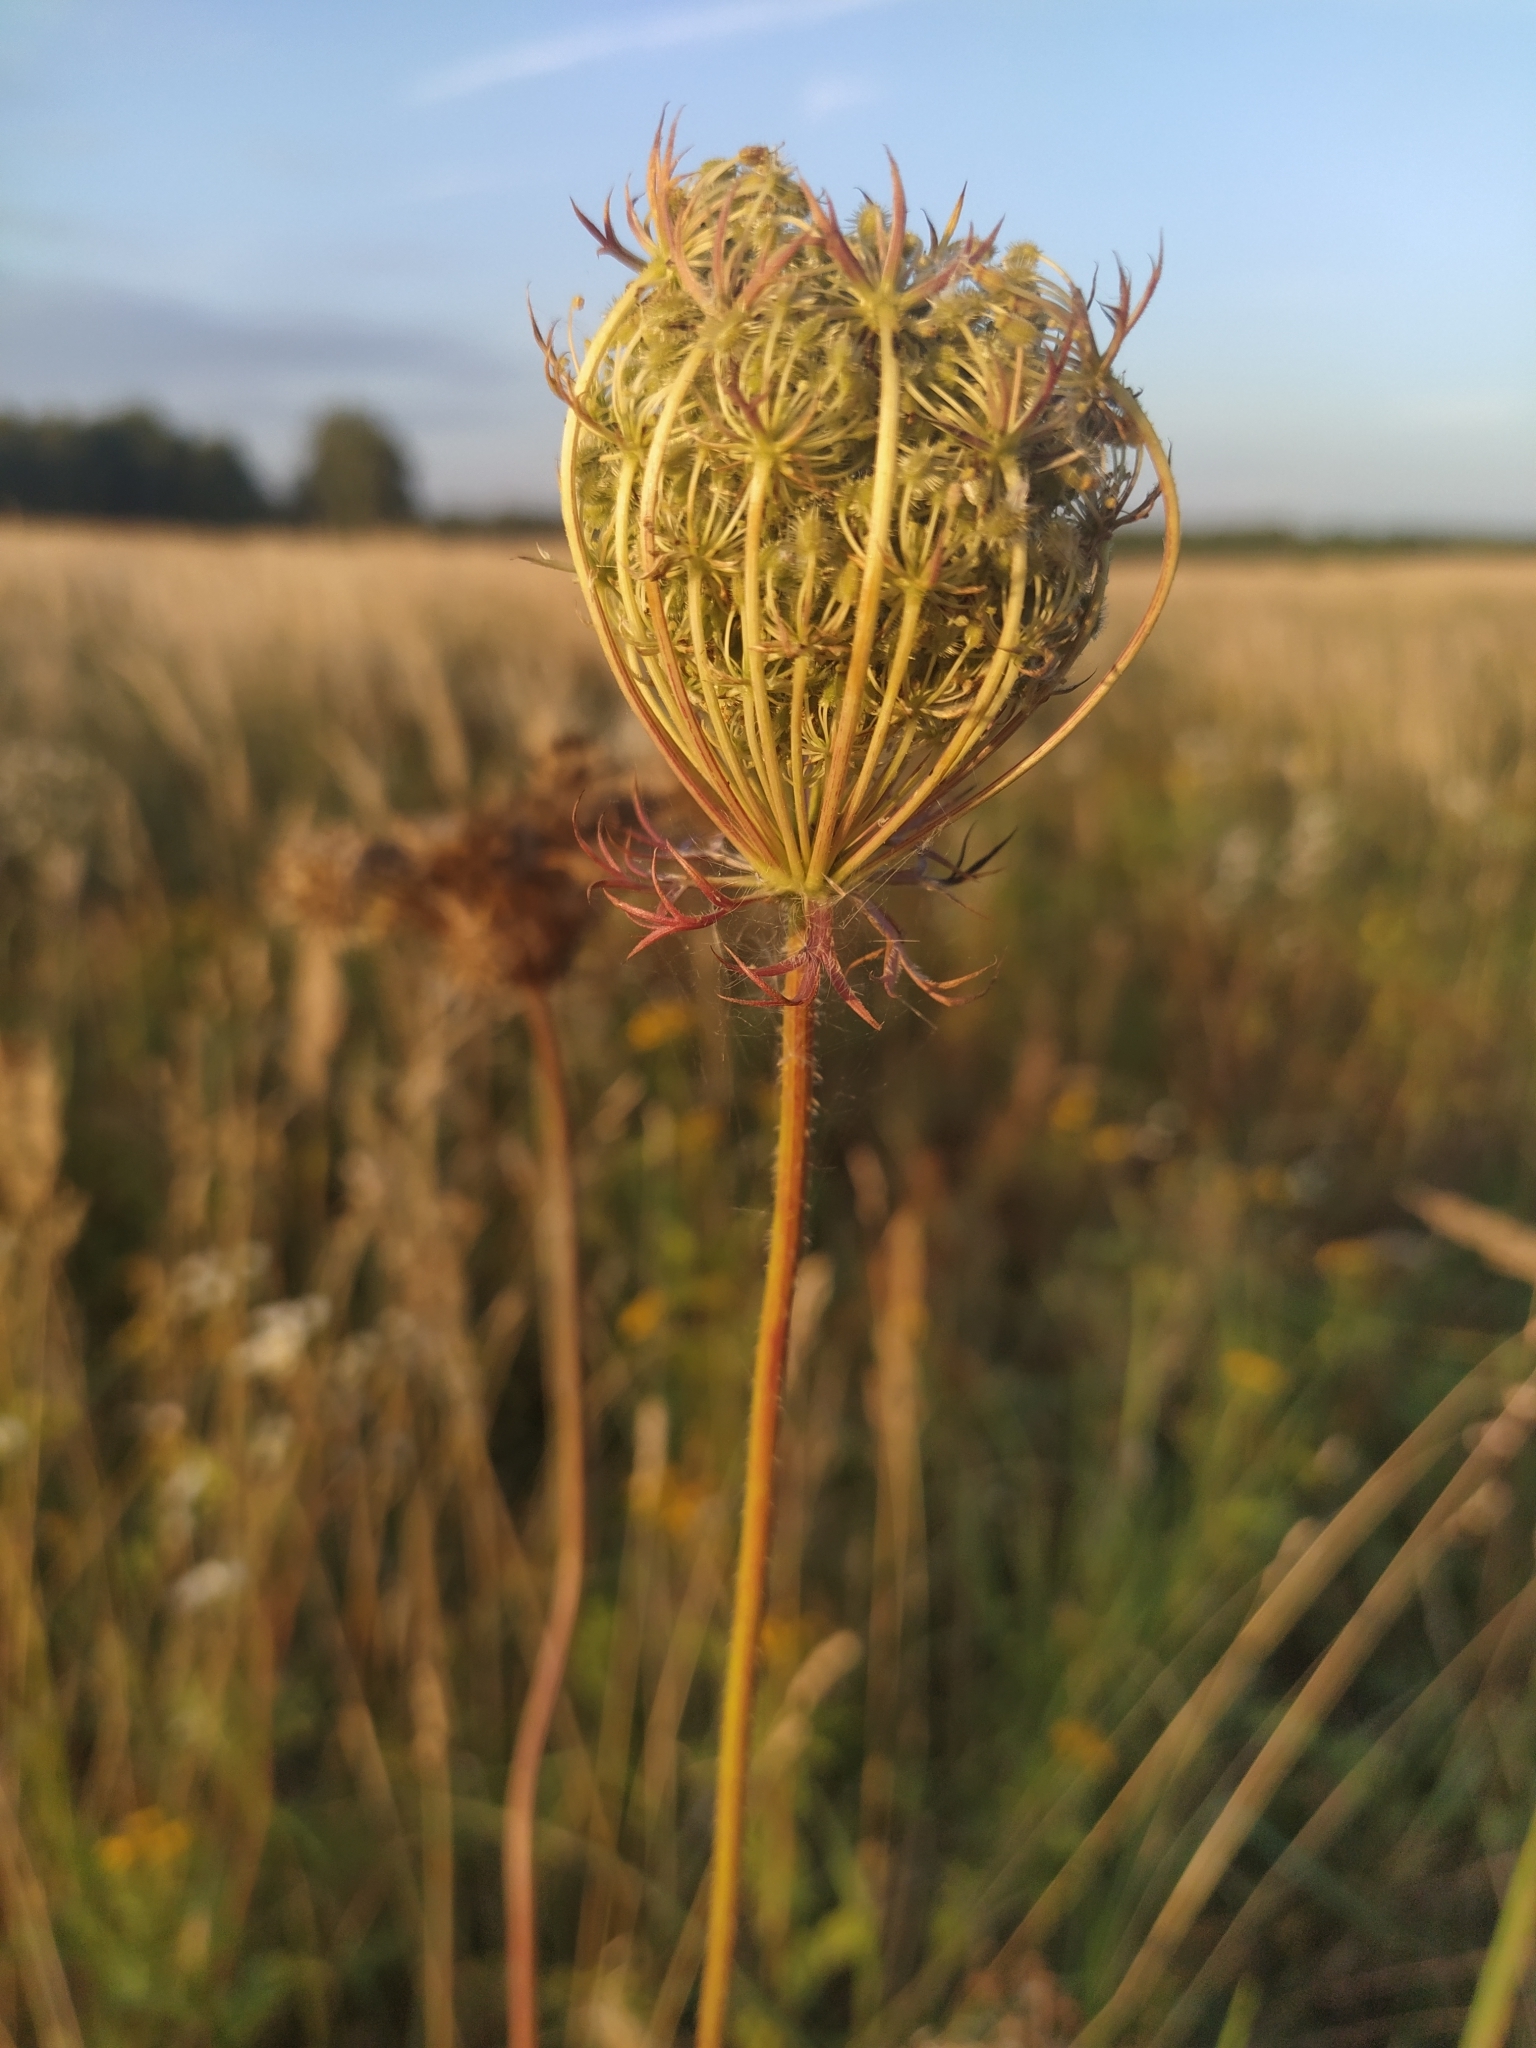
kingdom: Plantae
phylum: Tracheophyta
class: Magnoliopsida
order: Apiales
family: Apiaceae
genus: Daucus
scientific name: Daucus carota
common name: Wild carrot
